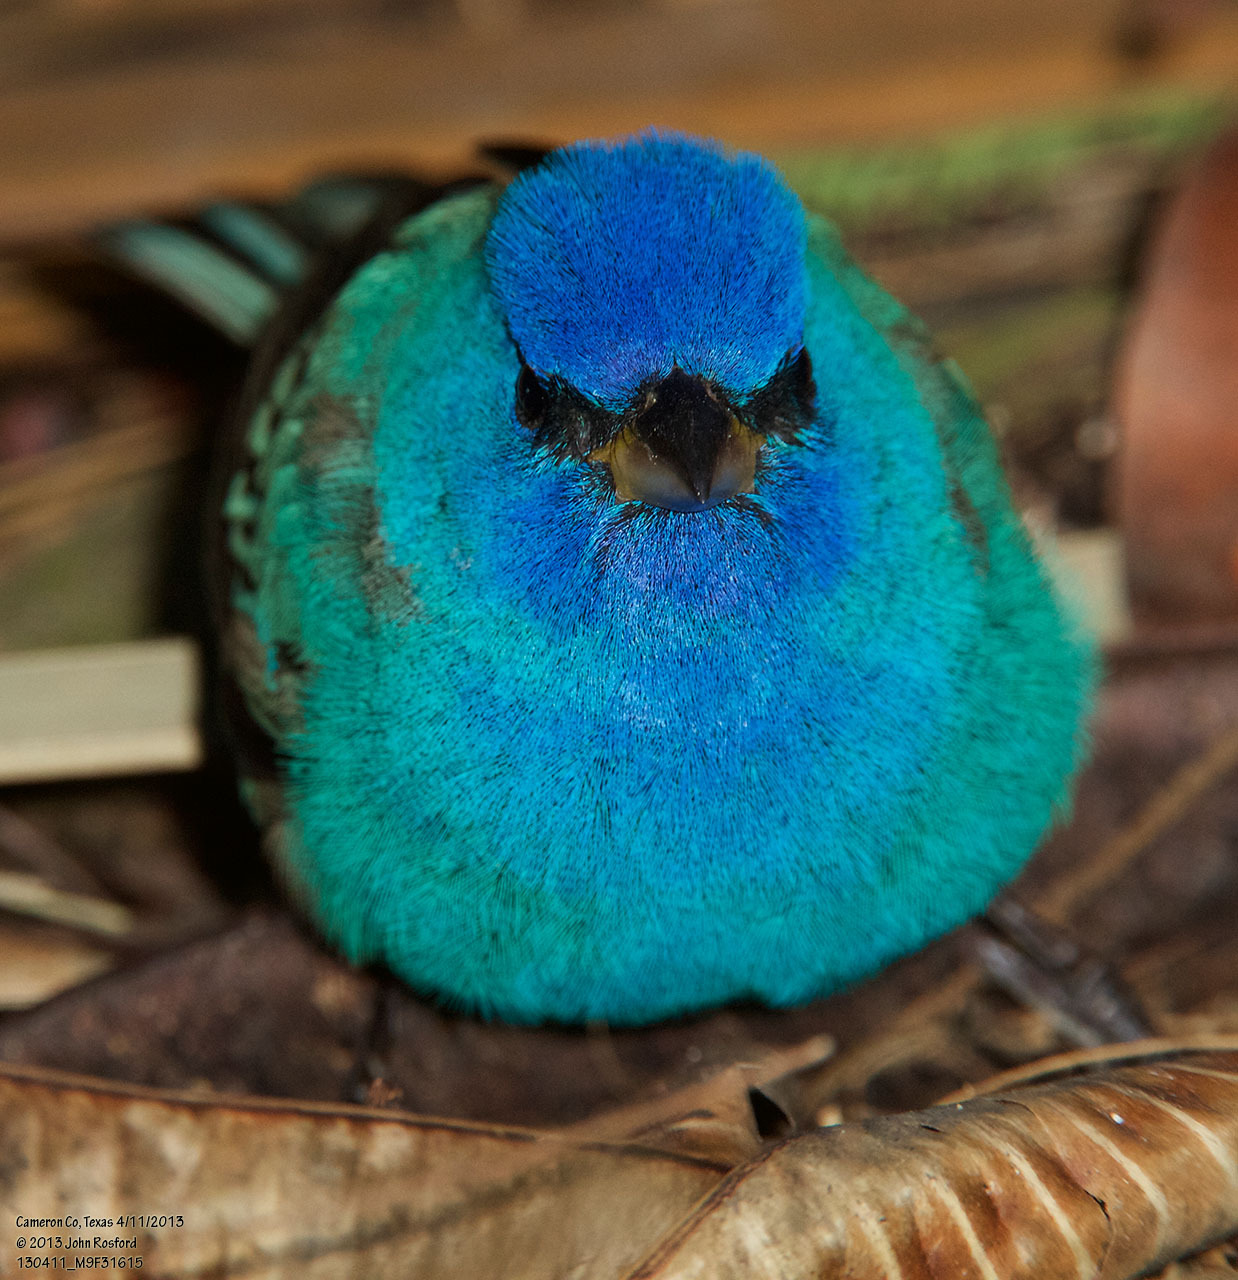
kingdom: Animalia
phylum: Chordata
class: Aves
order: Passeriformes
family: Cardinalidae
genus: Passerina
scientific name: Passerina cyanea
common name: Indigo bunting
